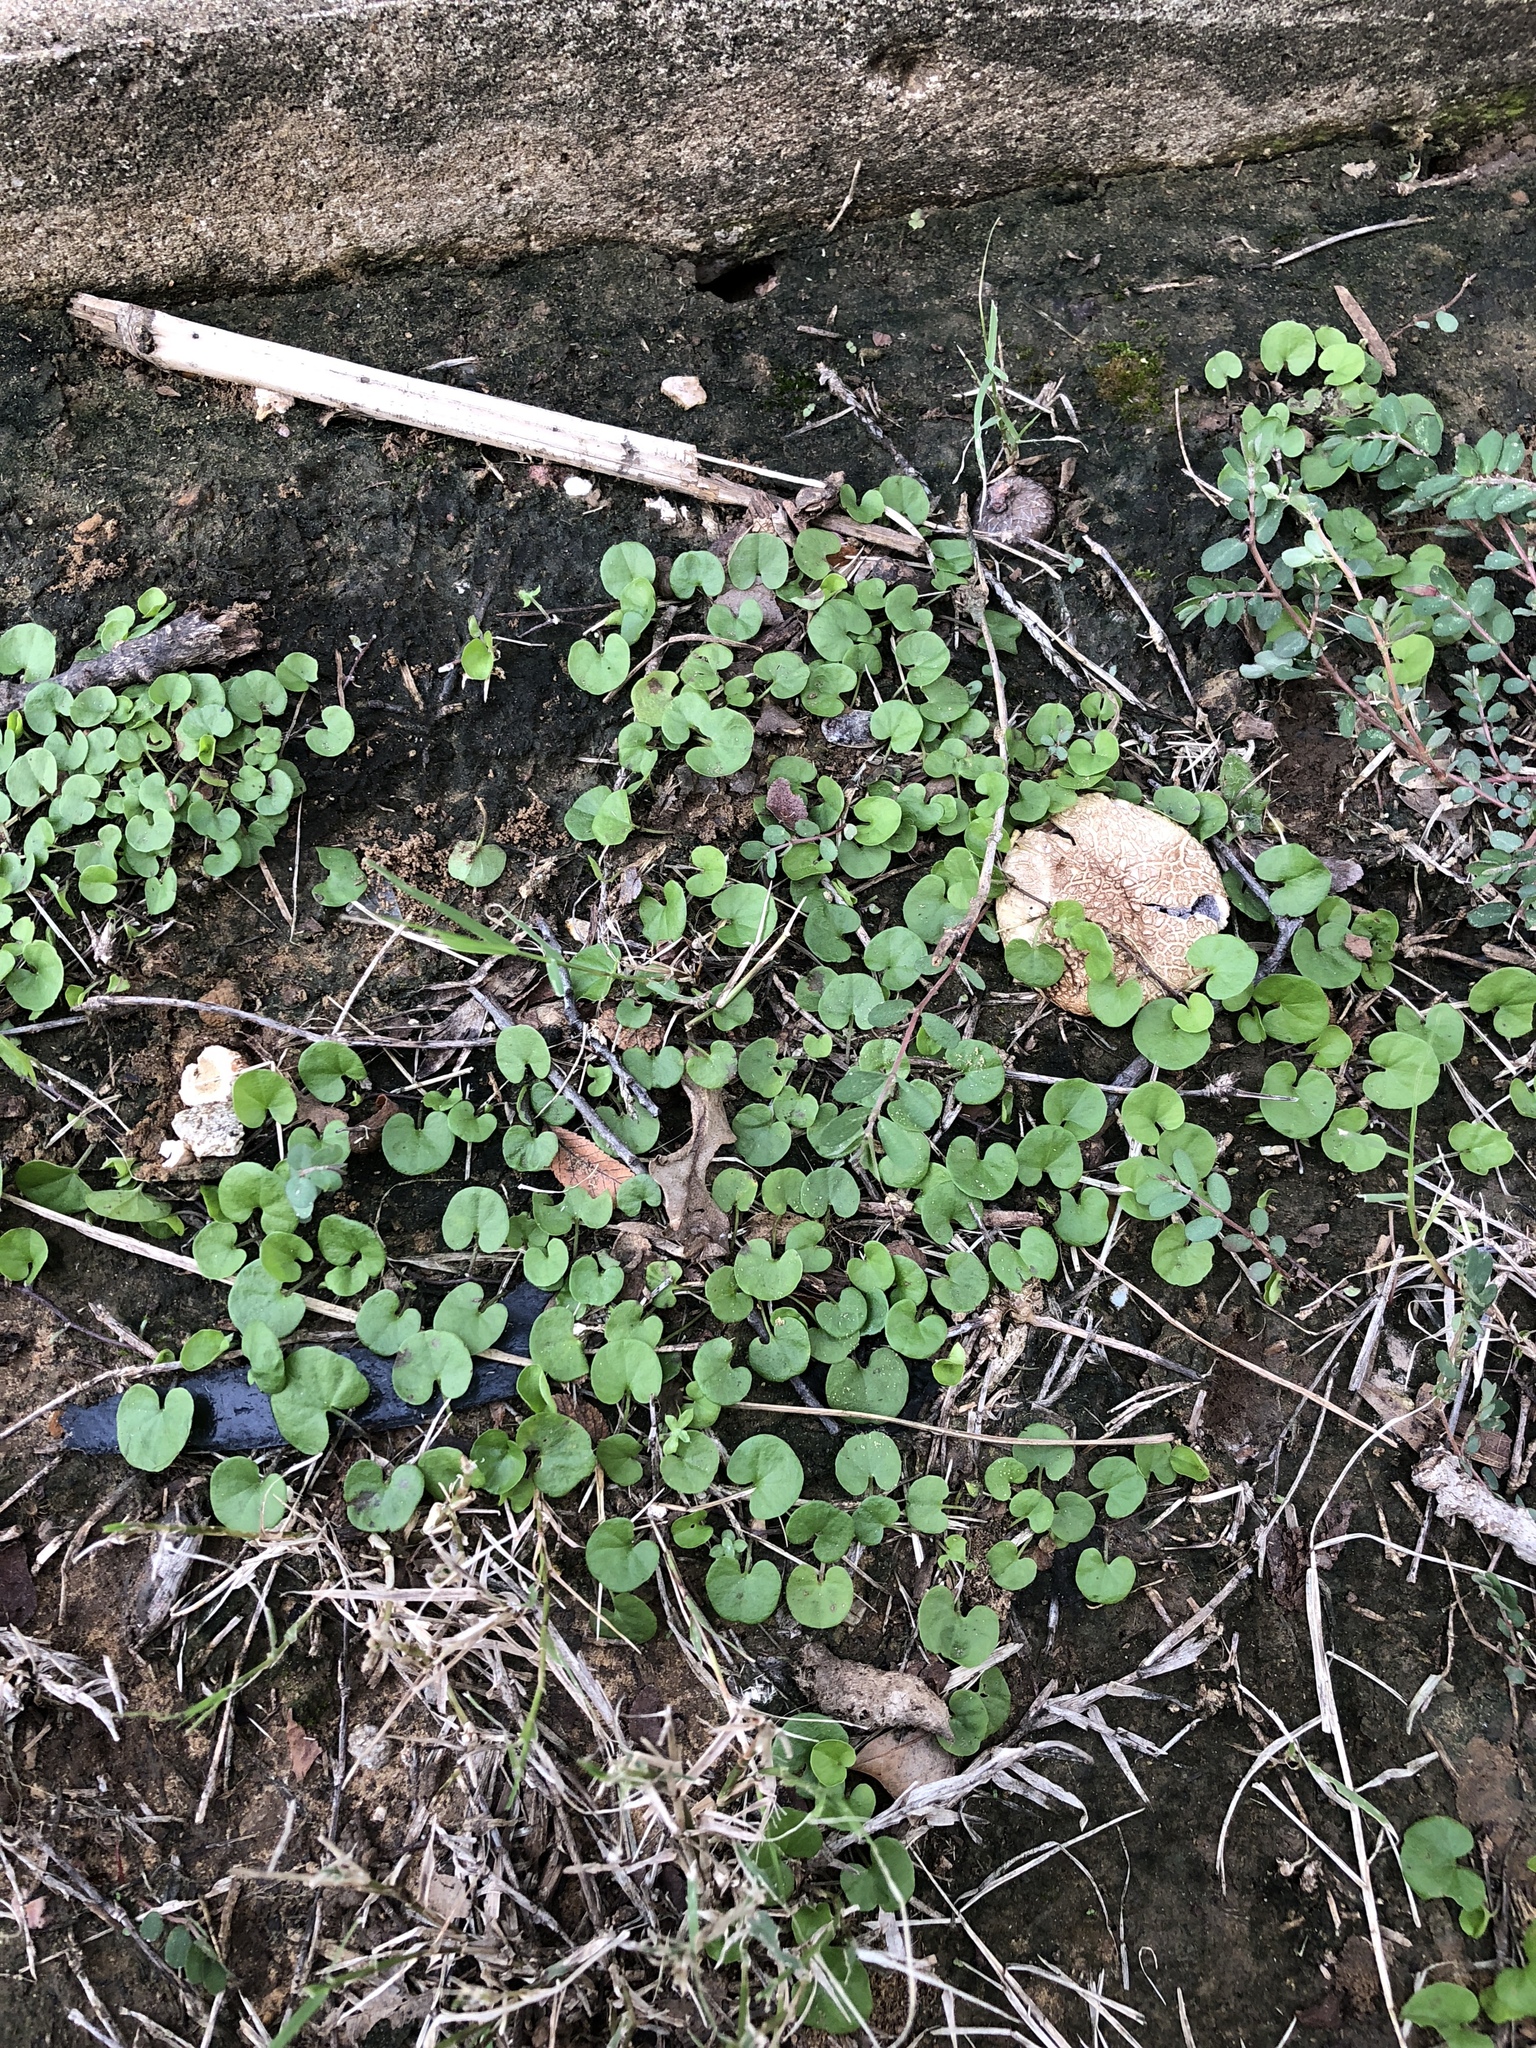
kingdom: Plantae
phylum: Tracheophyta
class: Magnoliopsida
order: Solanales
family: Convolvulaceae
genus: Dichondra
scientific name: Dichondra carolinensis
